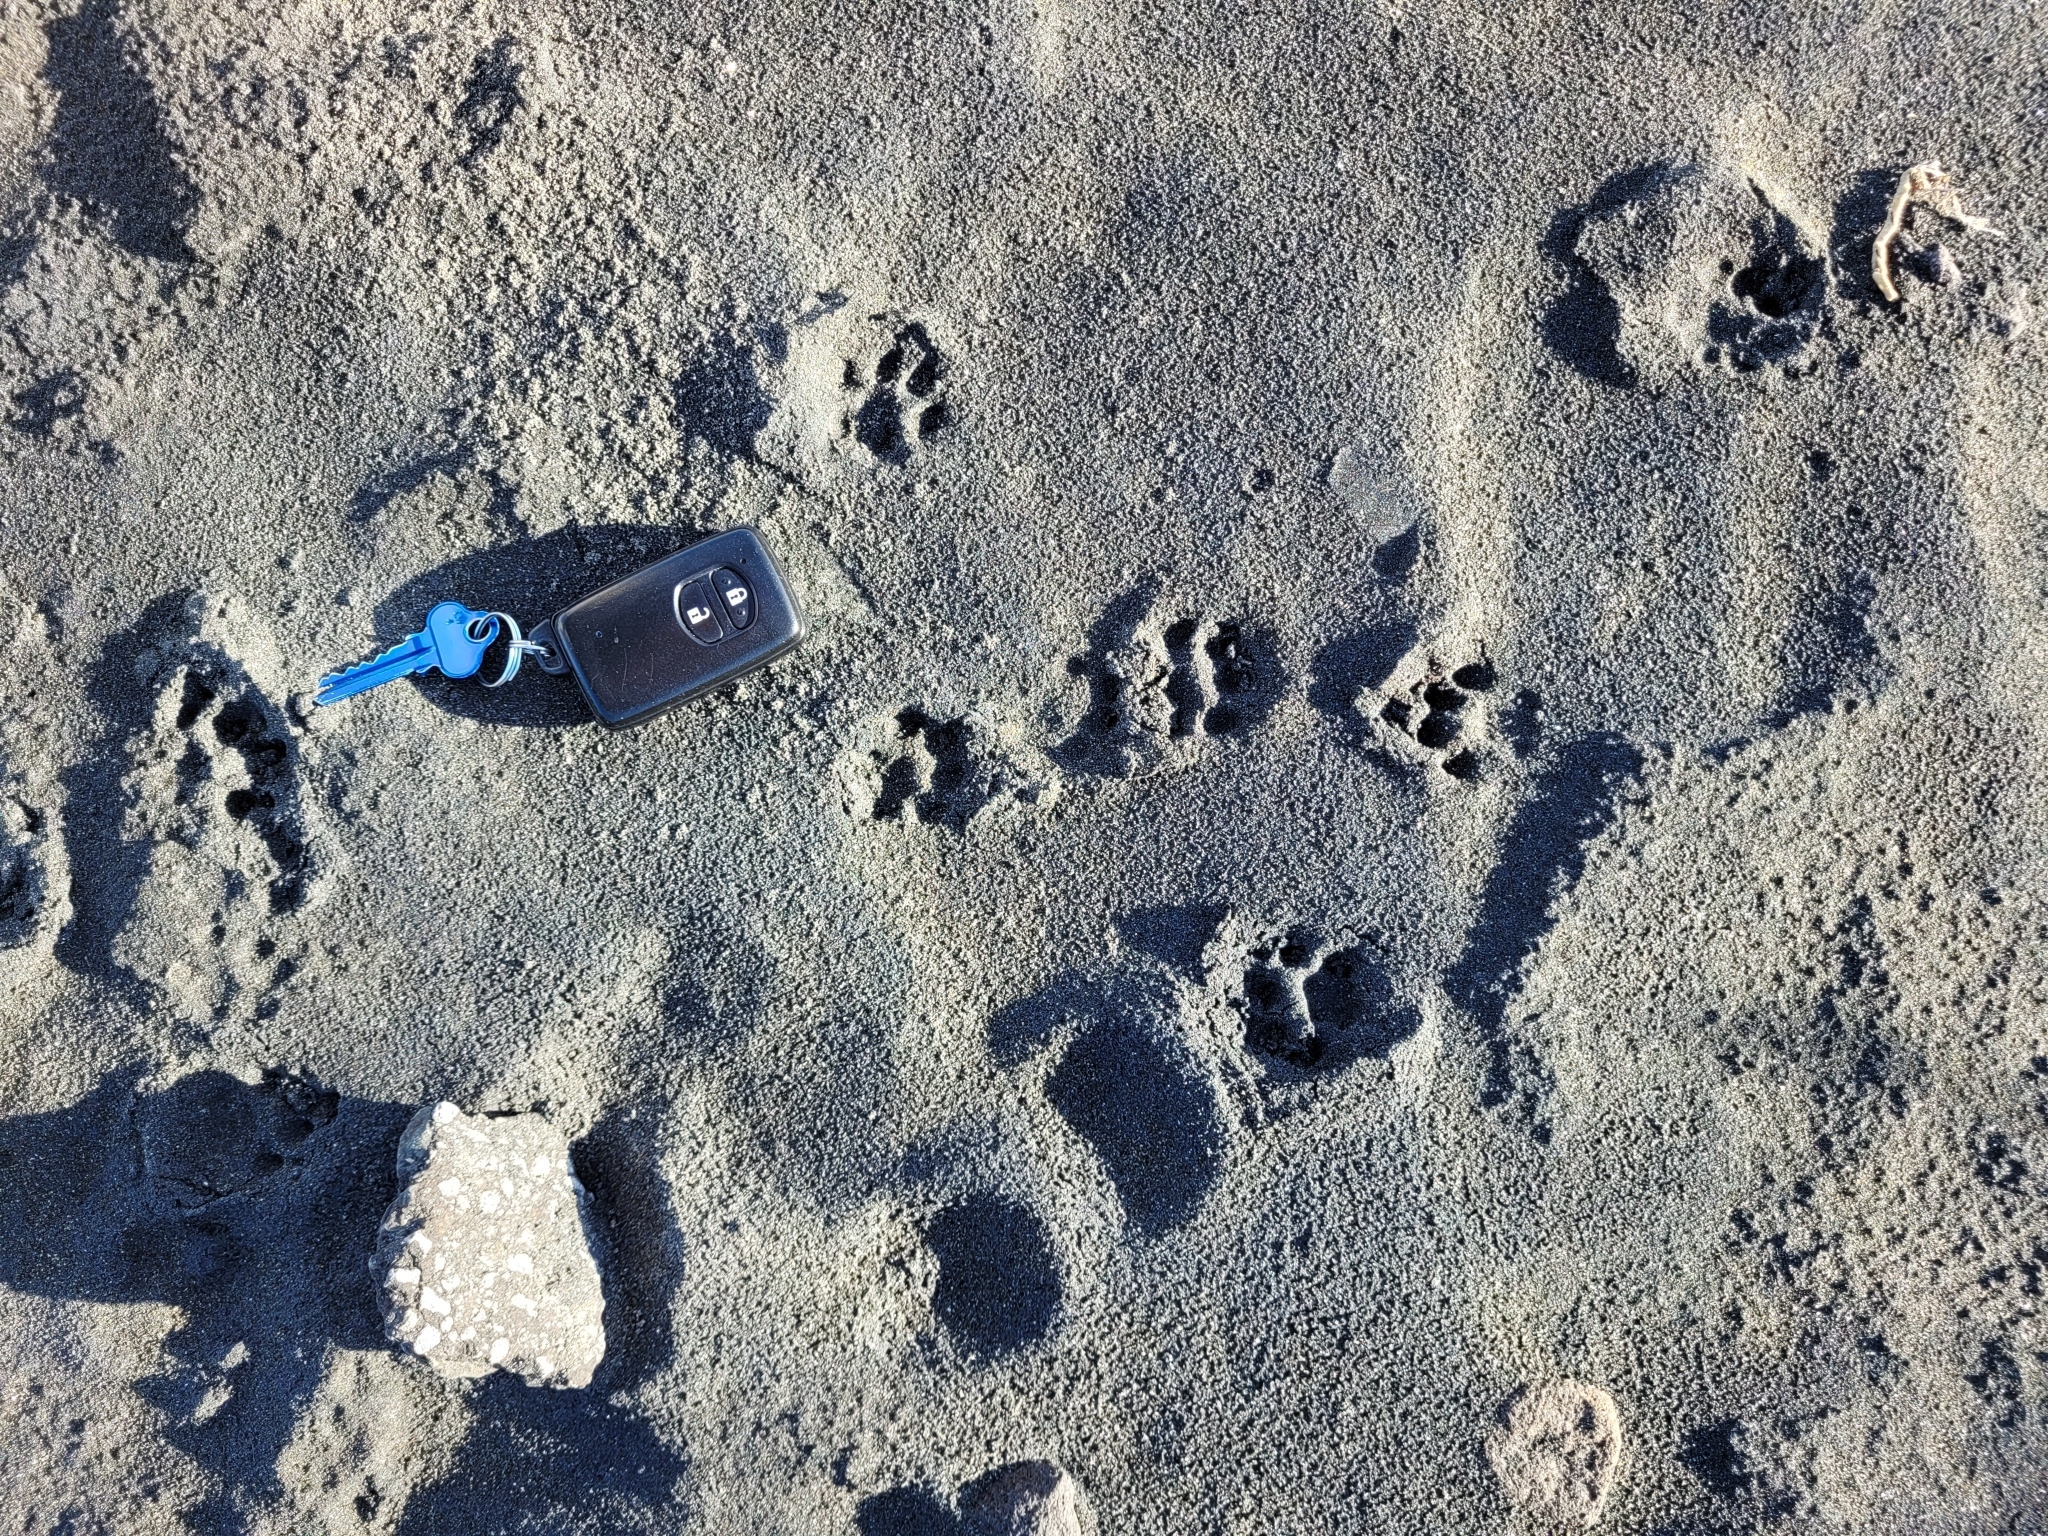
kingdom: Animalia
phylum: Chordata
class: Mammalia
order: Carnivora
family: Mustelidae
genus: Mustela
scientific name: Mustela erminea
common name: Stoat
